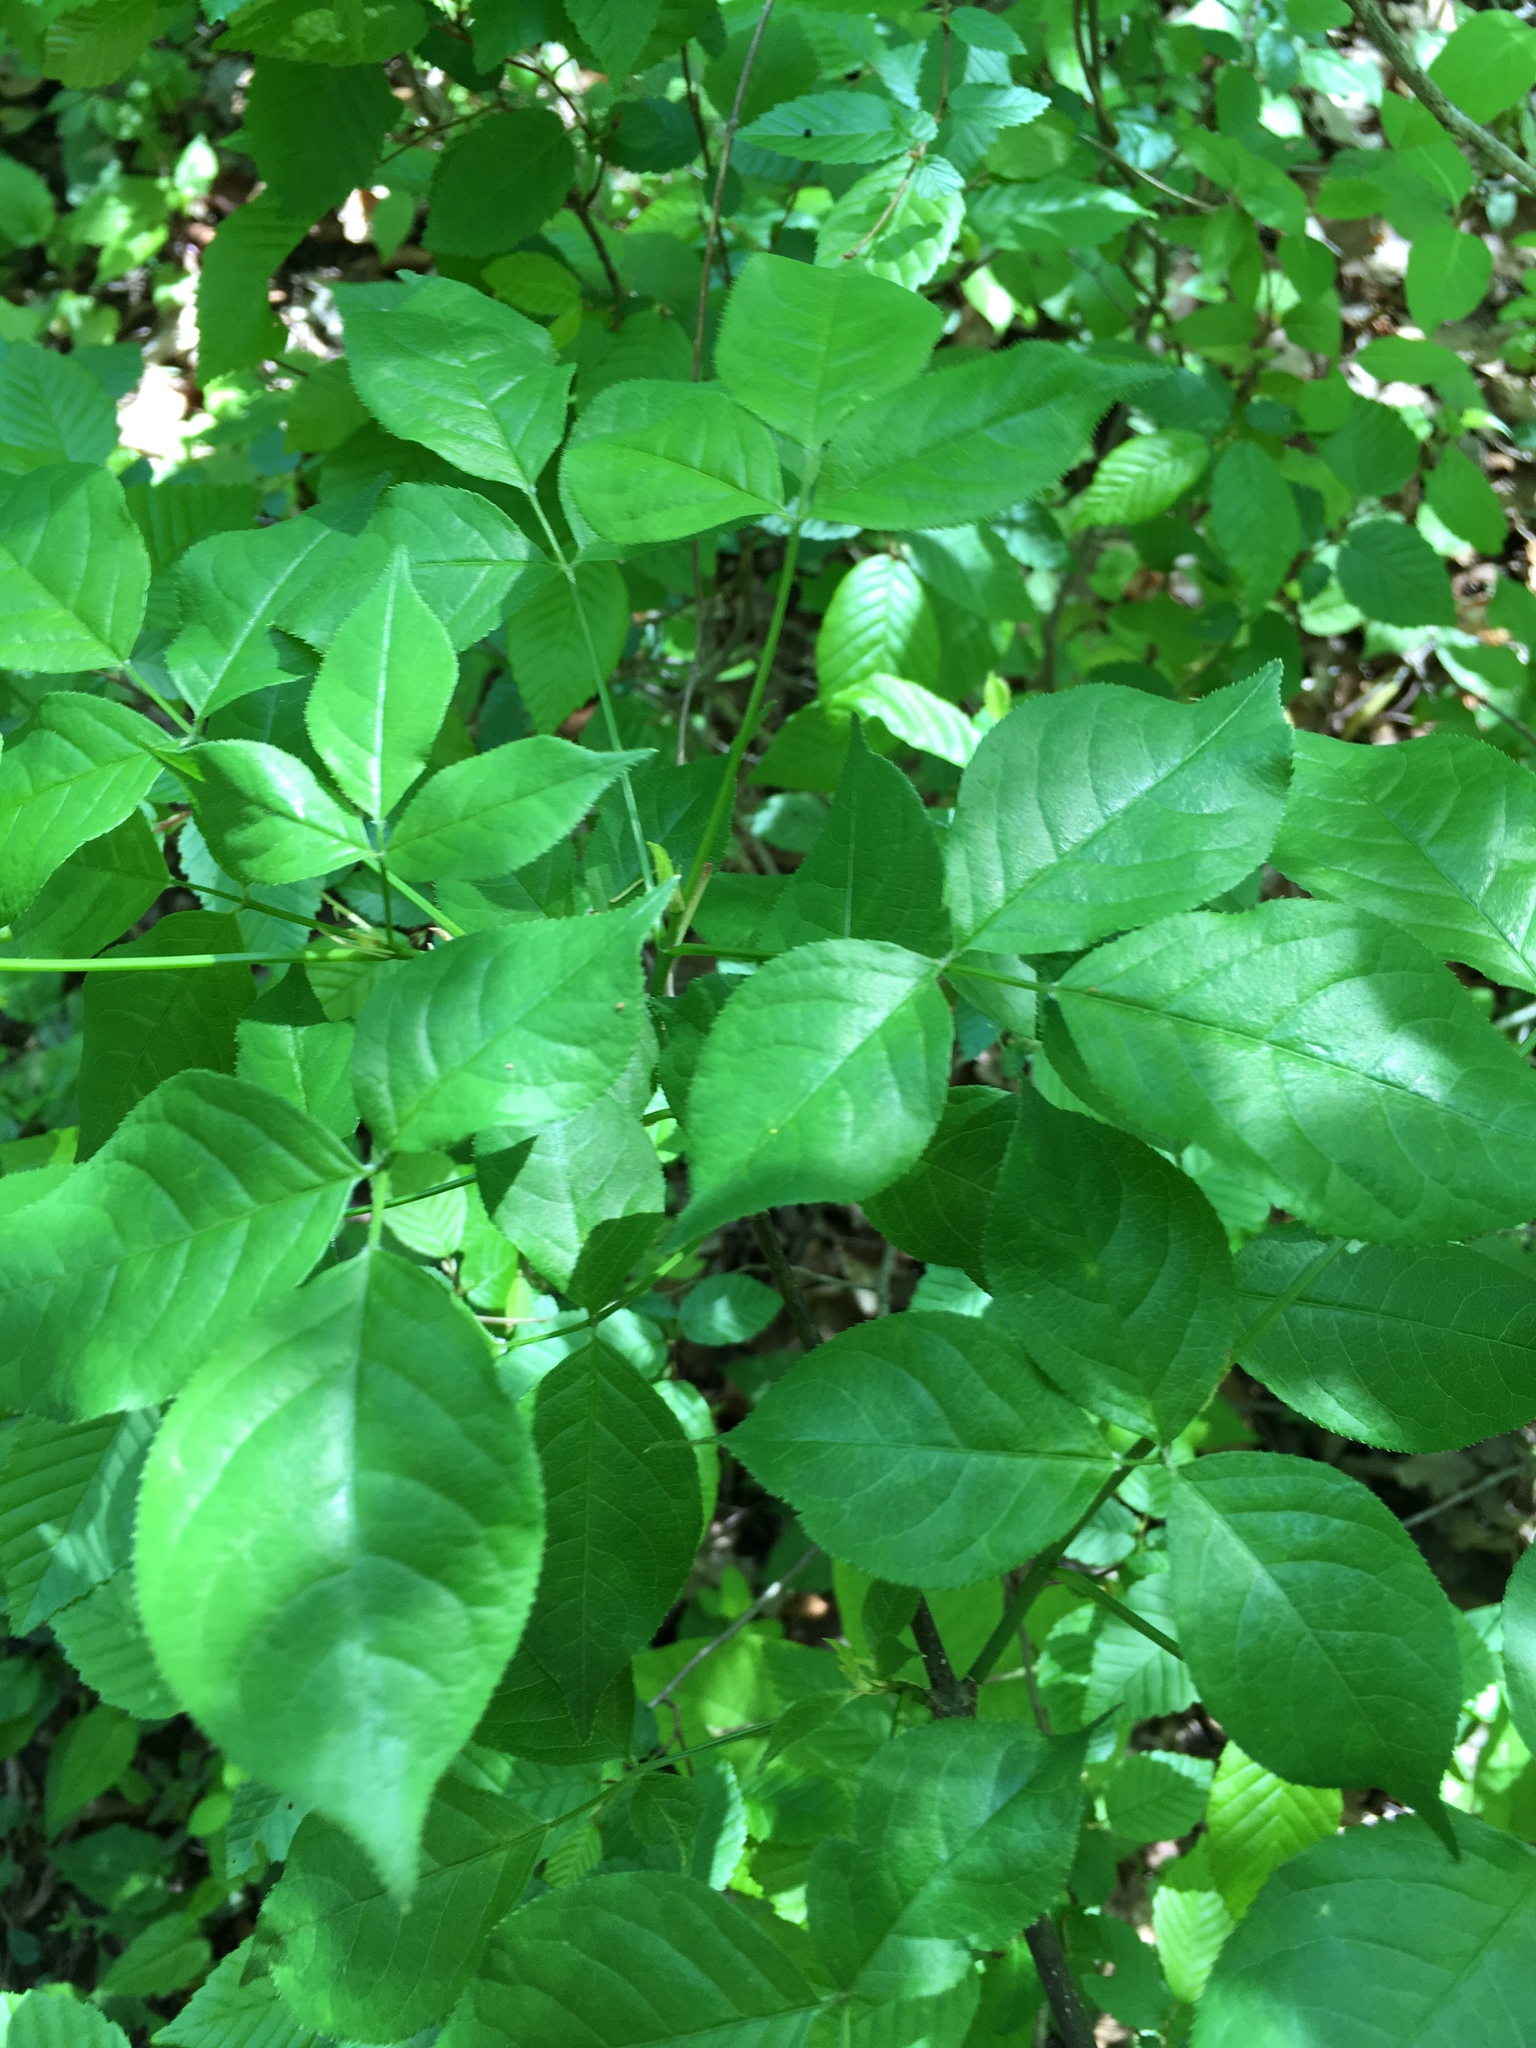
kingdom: Plantae
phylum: Tracheophyta
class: Magnoliopsida
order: Crossosomatales
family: Staphyleaceae
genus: Staphylea
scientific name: Staphylea trifolia
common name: American bladdernut
